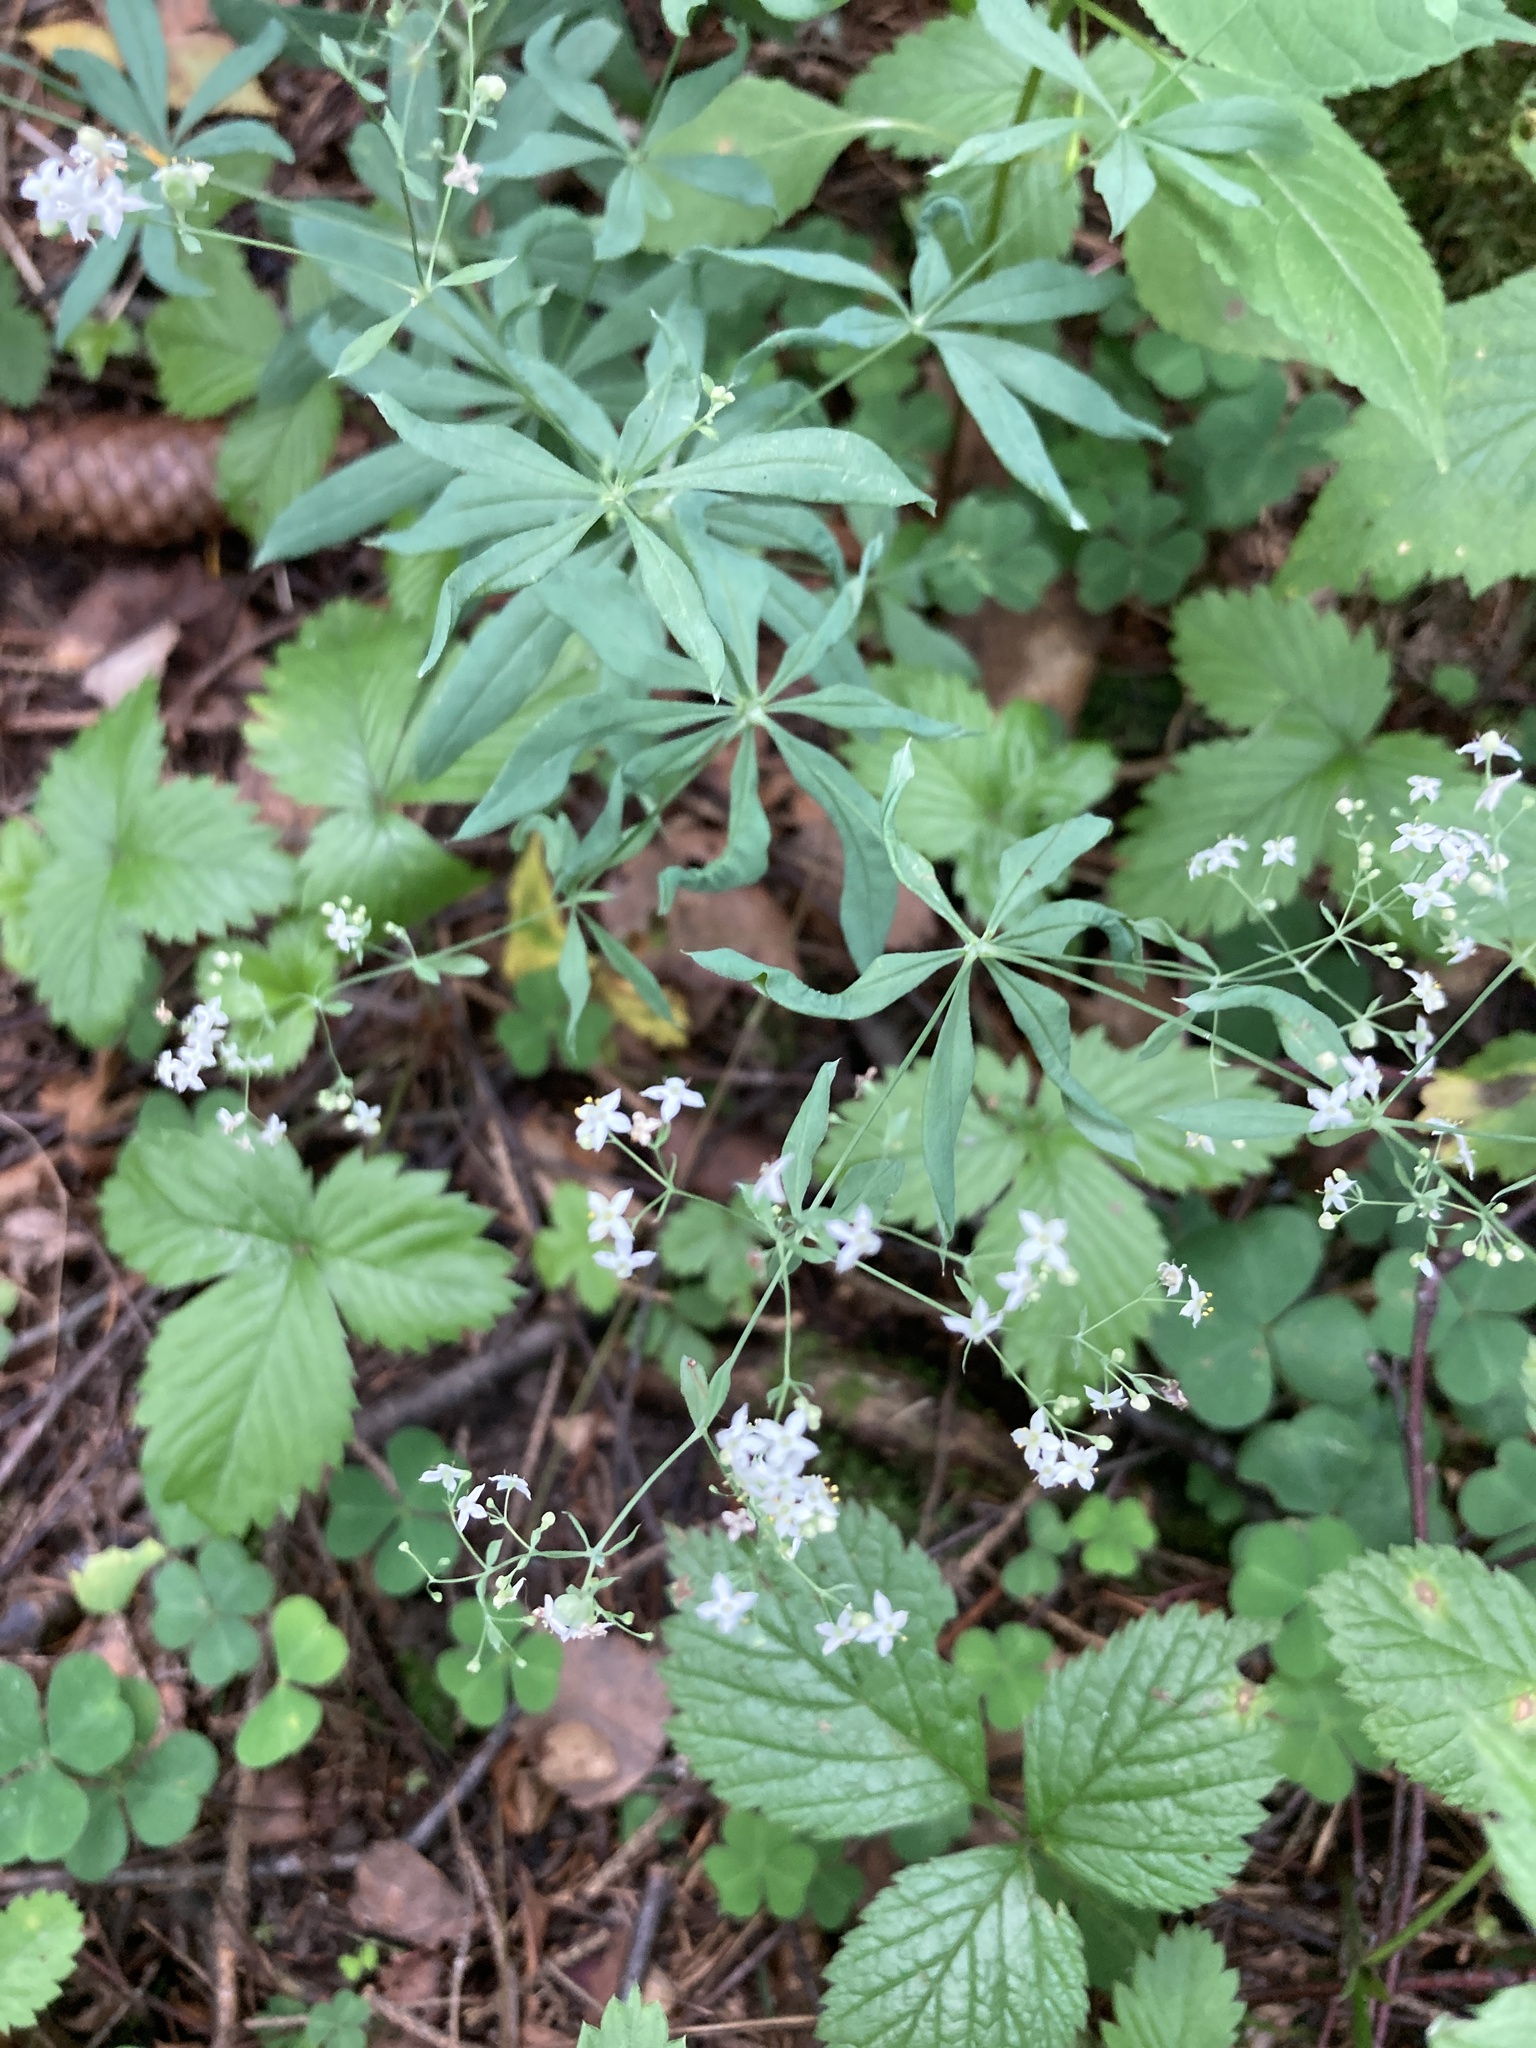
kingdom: Plantae
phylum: Tracheophyta
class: Magnoliopsida
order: Gentianales
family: Rubiaceae
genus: Galium
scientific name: Galium intermedium
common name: Bedstraw
